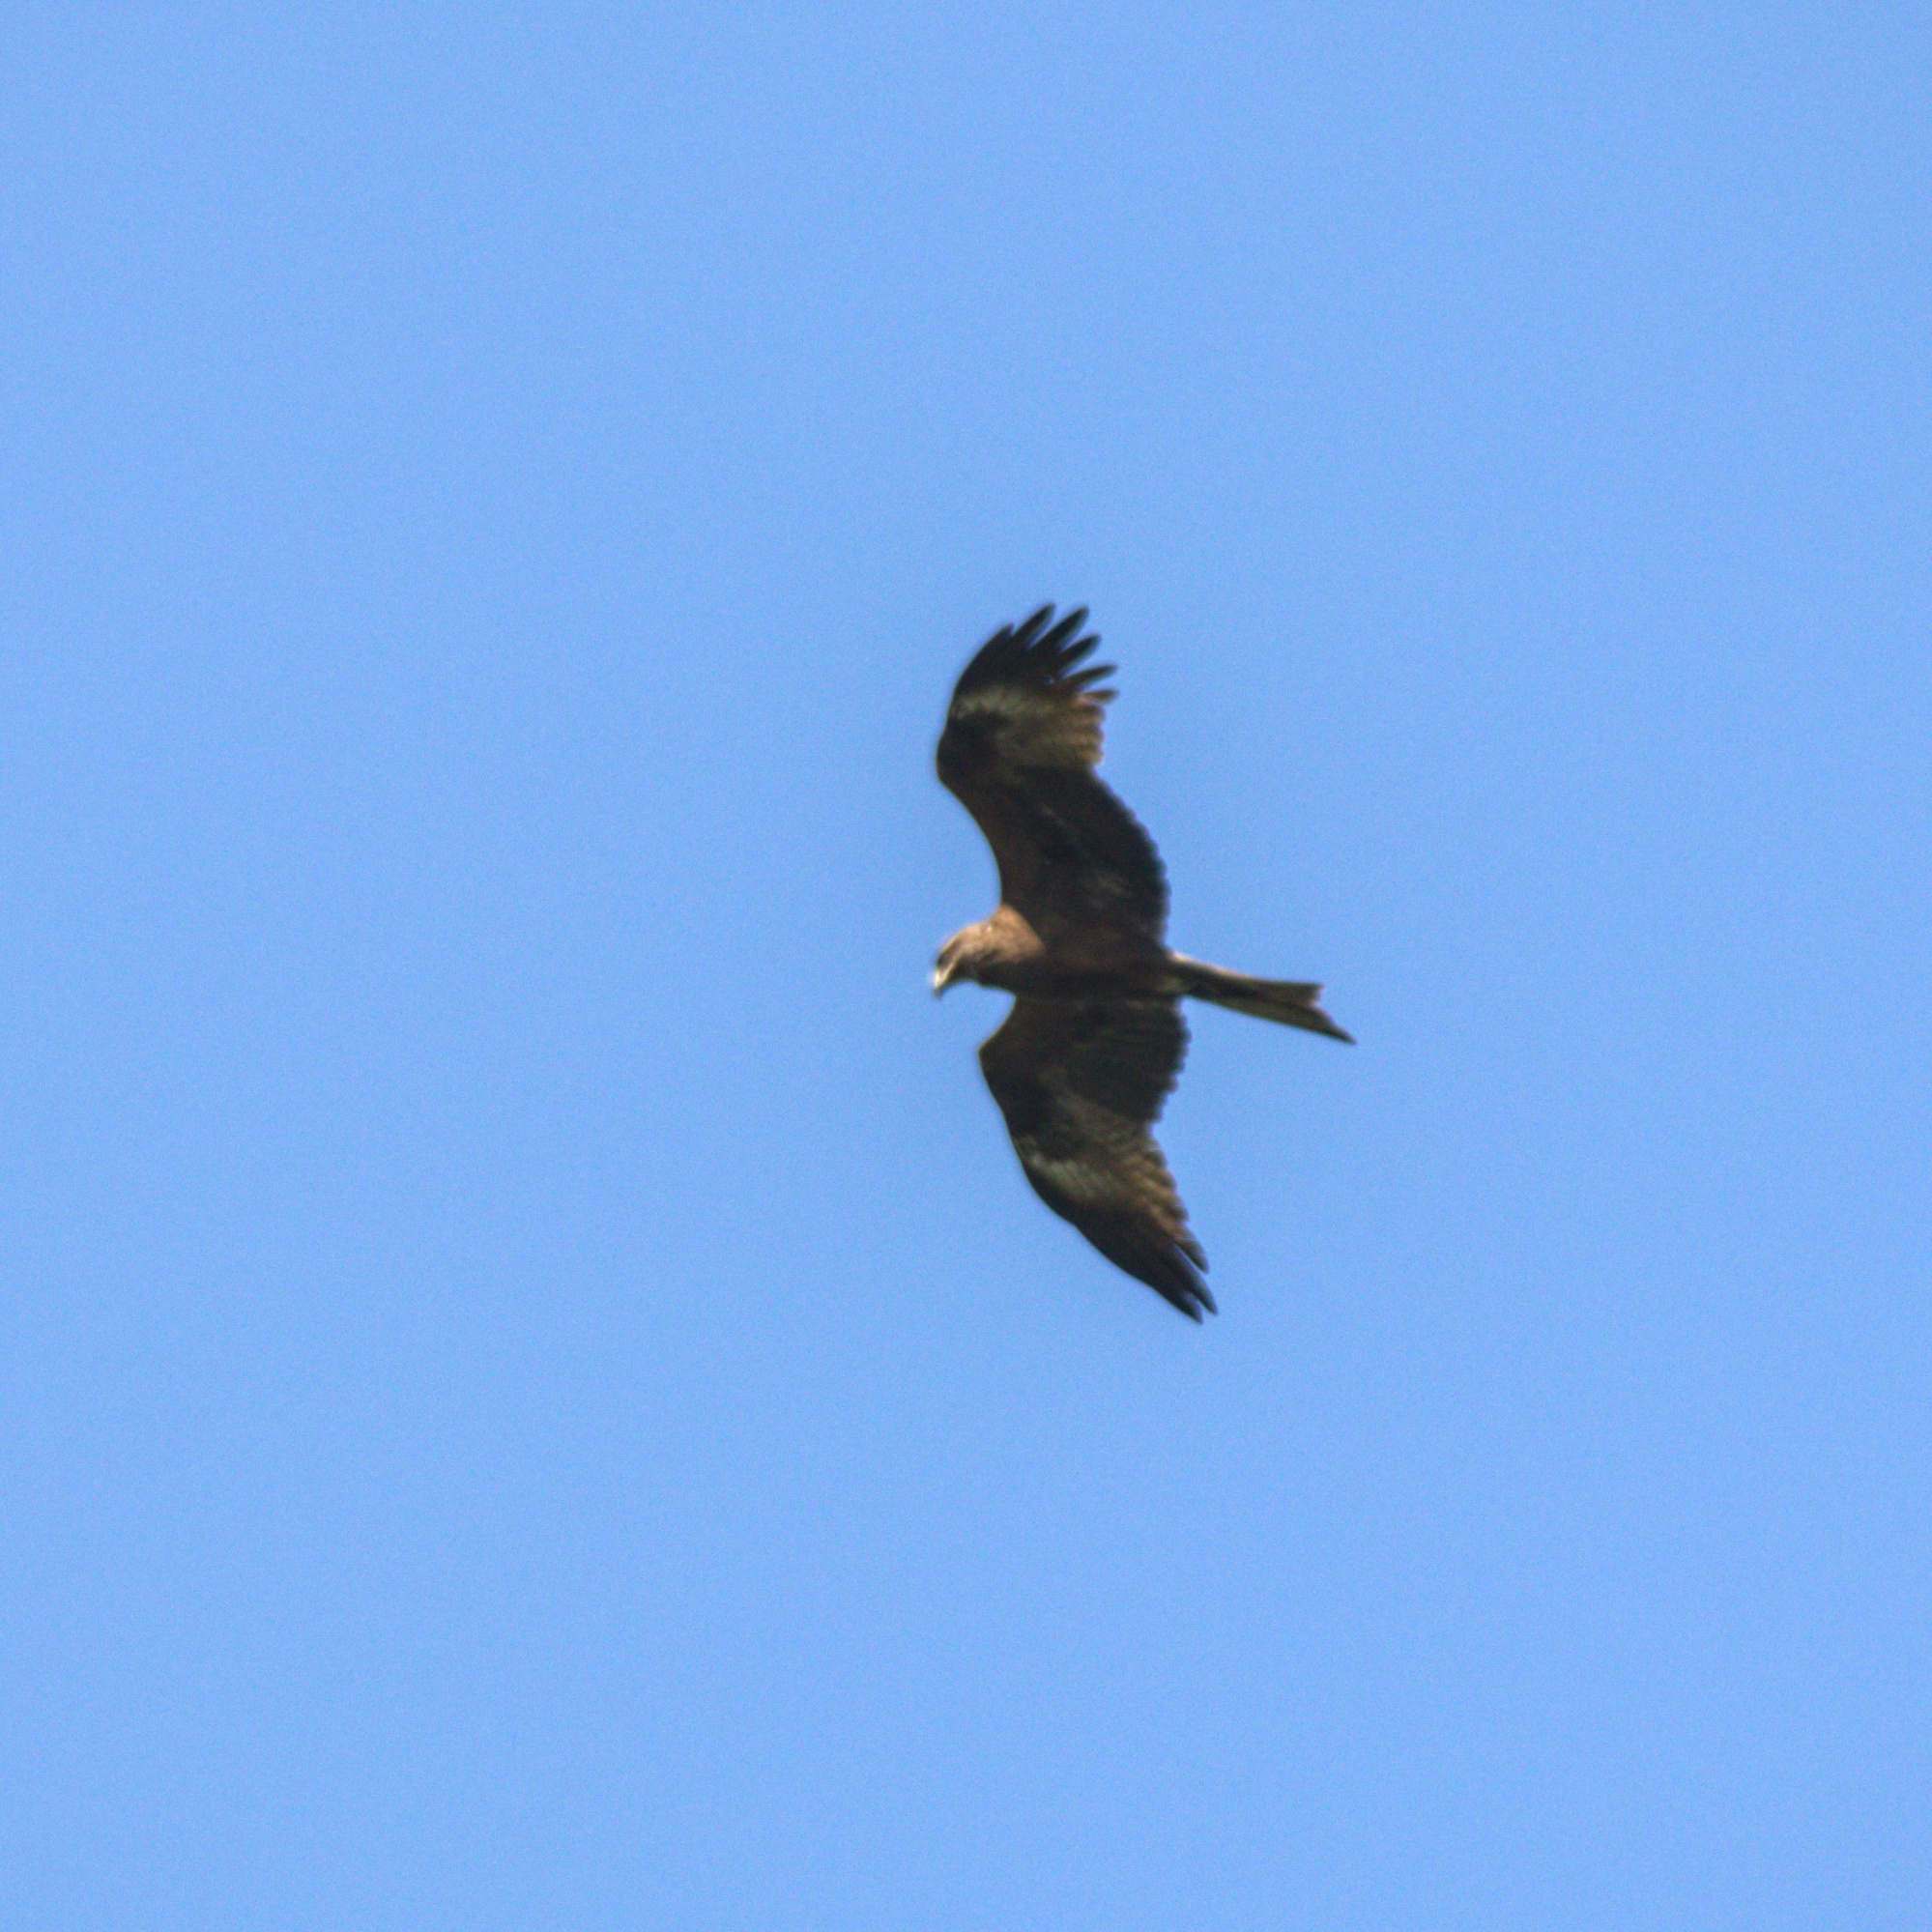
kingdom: Animalia
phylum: Chordata
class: Aves
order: Accipitriformes
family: Accipitridae
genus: Milvus
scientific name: Milvus migrans
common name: Black kite
